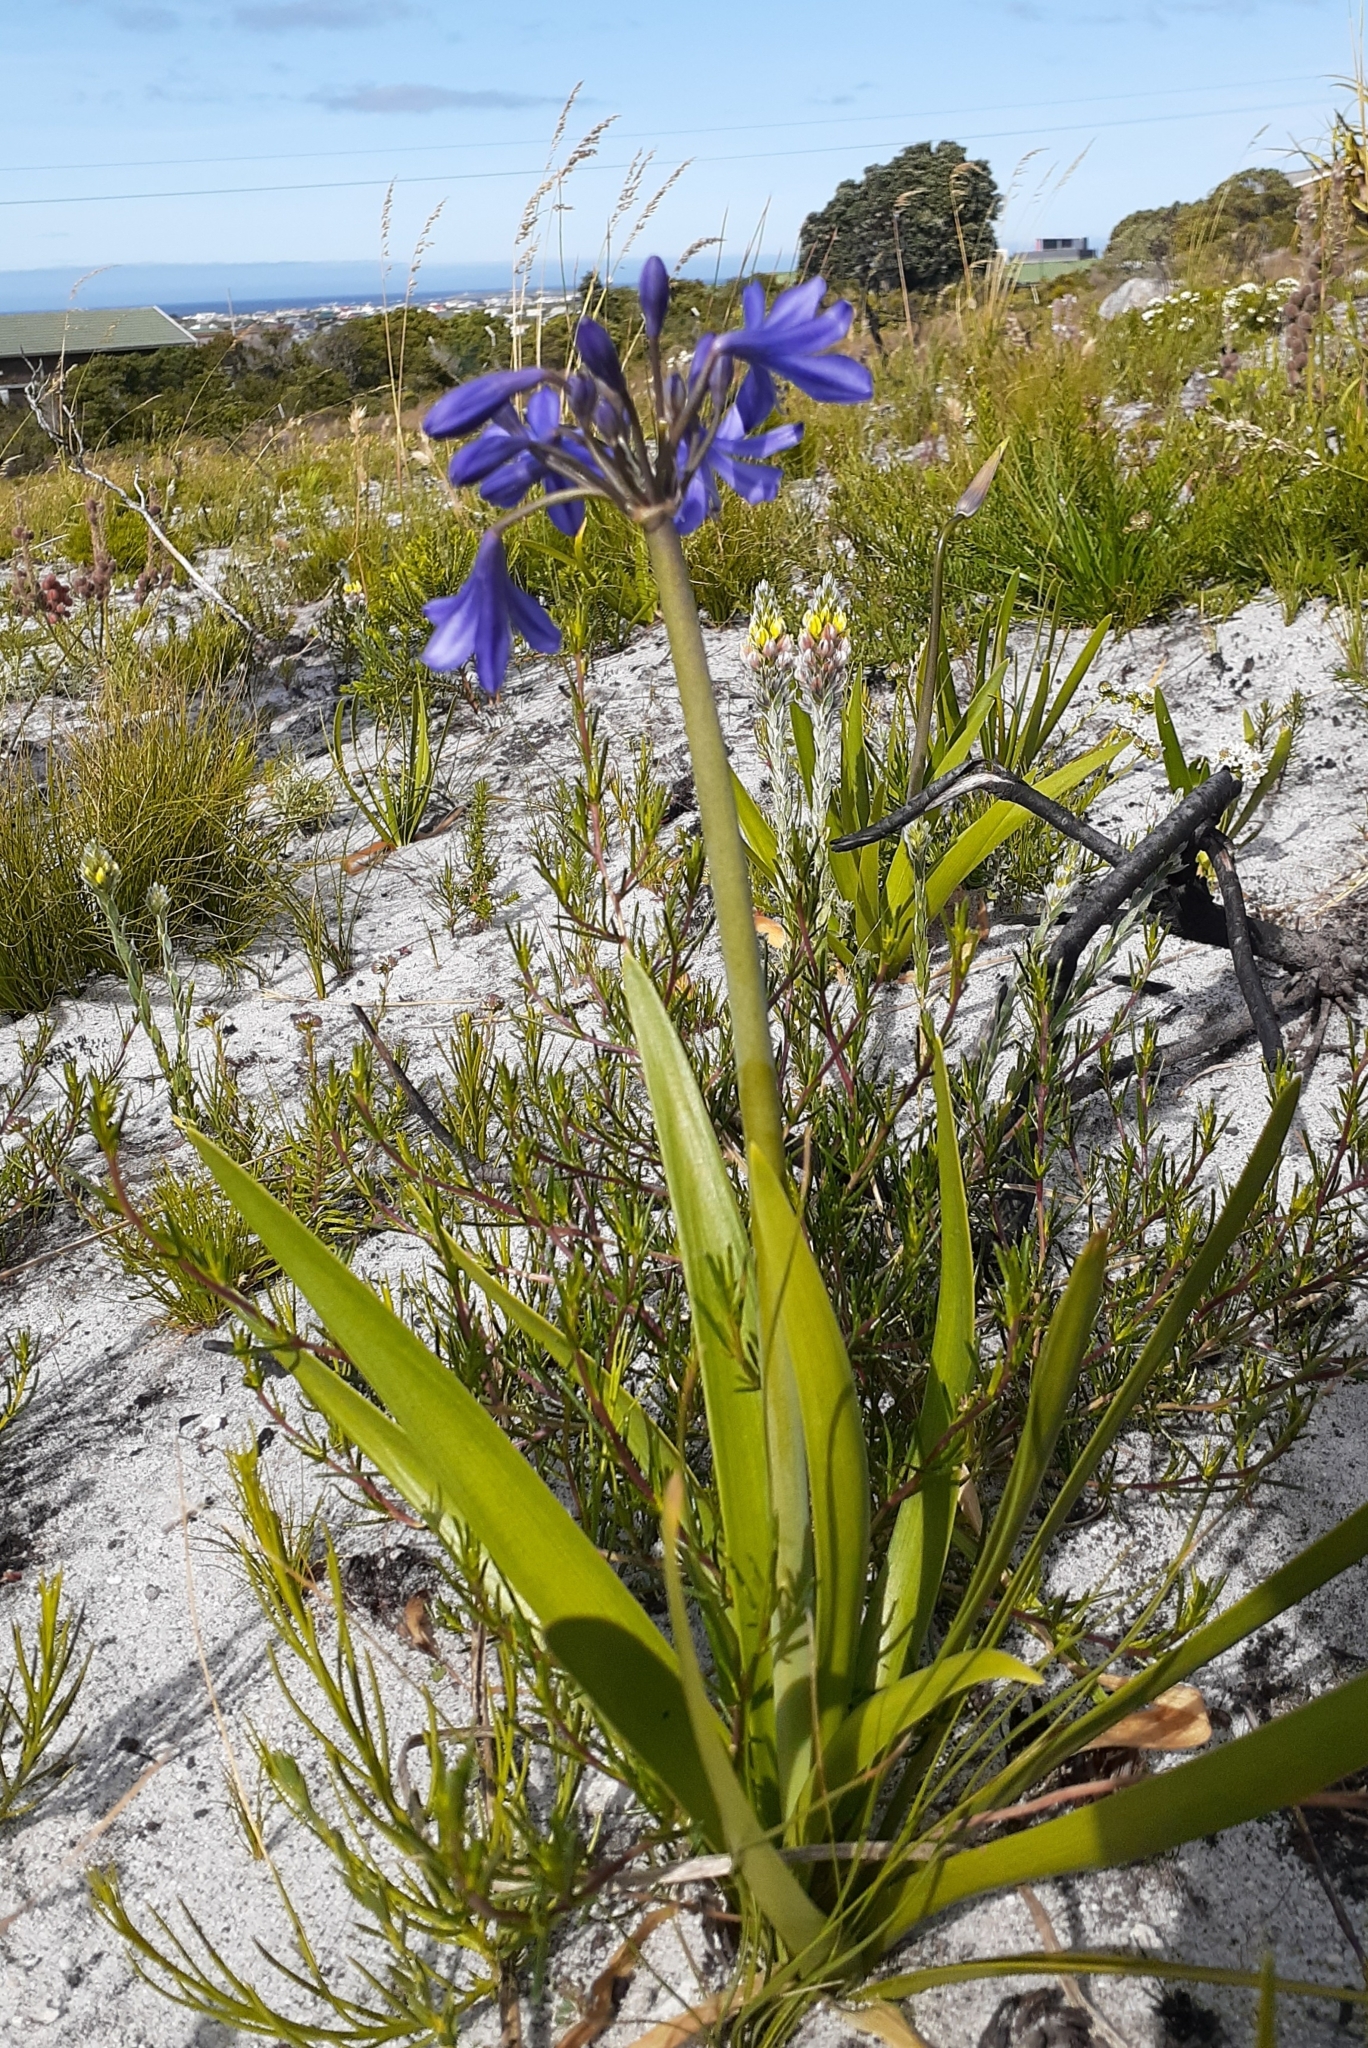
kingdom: Plantae
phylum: Tracheophyta
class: Liliopsida
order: Asparagales
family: Amaryllidaceae
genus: Agapanthus
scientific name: Agapanthus africanus
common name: Lily-of-the-nile
